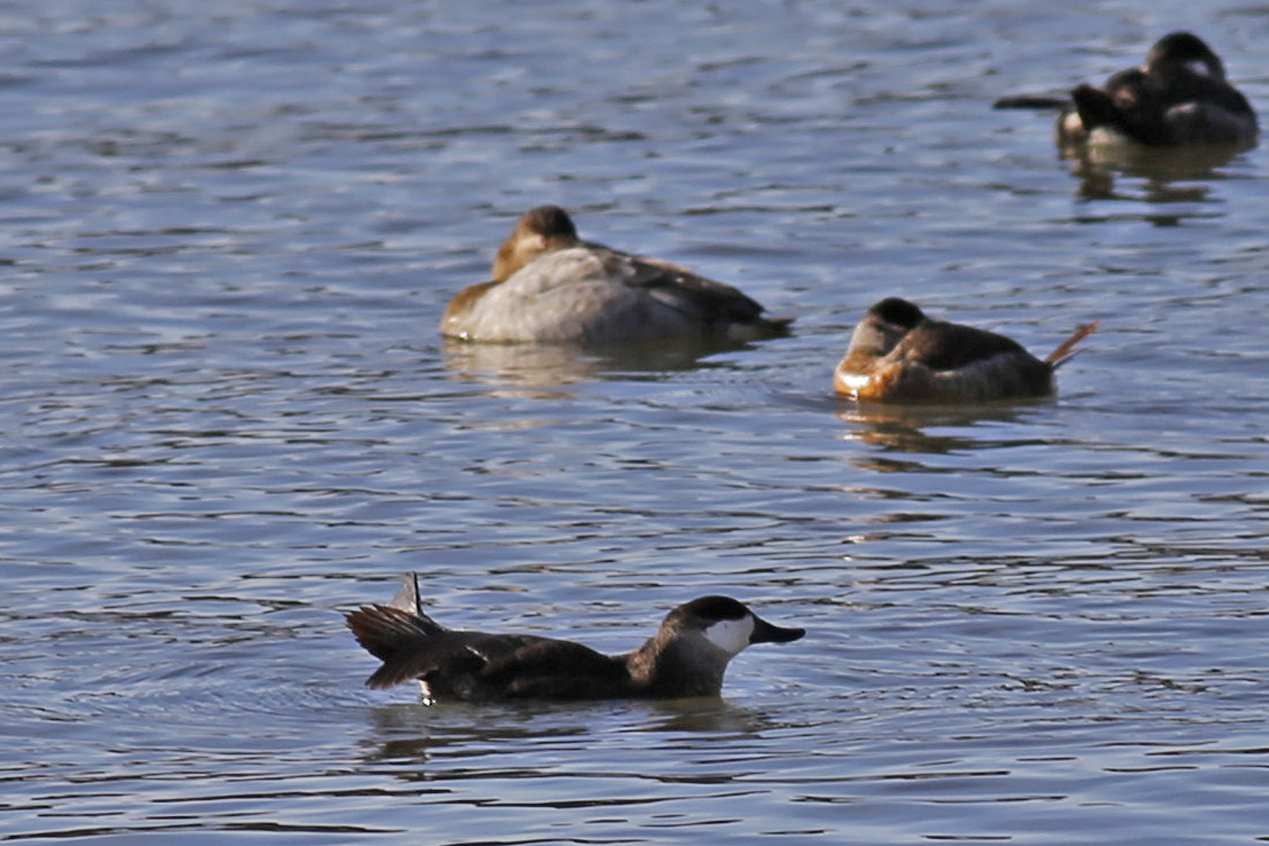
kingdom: Animalia
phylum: Chordata
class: Aves
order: Anseriformes
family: Anatidae
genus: Oxyura
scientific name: Oxyura jamaicensis
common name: Ruddy duck
